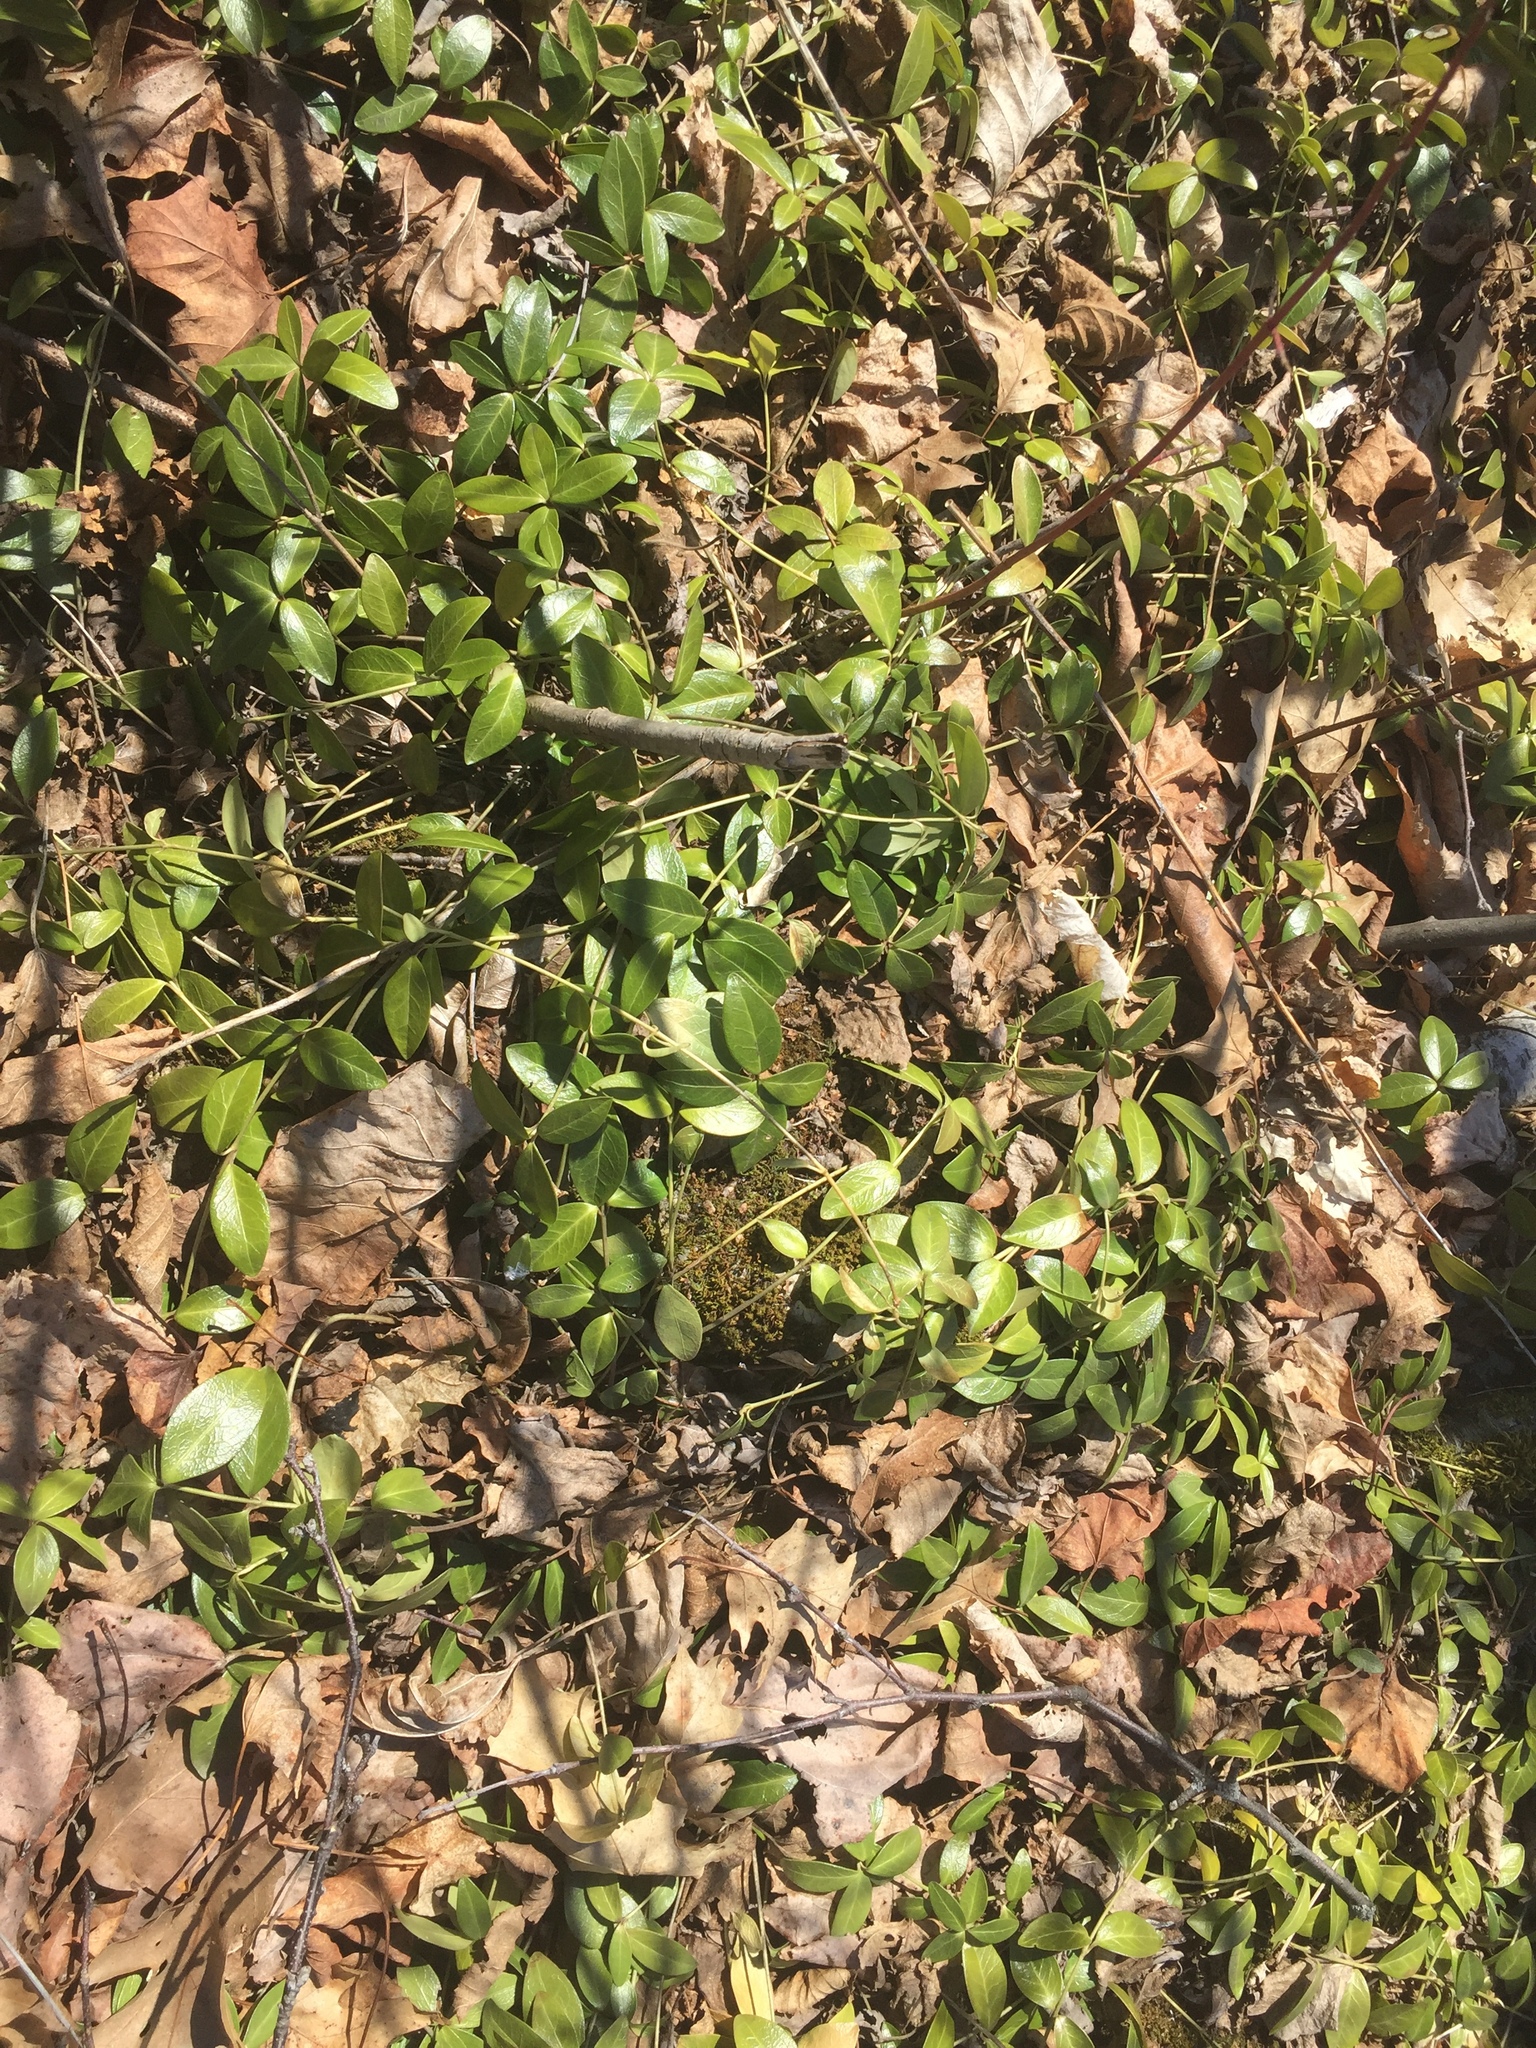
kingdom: Plantae
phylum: Tracheophyta
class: Magnoliopsida
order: Gentianales
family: Apocynaceae
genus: Vinca
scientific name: Vinca minor
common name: Lesser periwinkle
